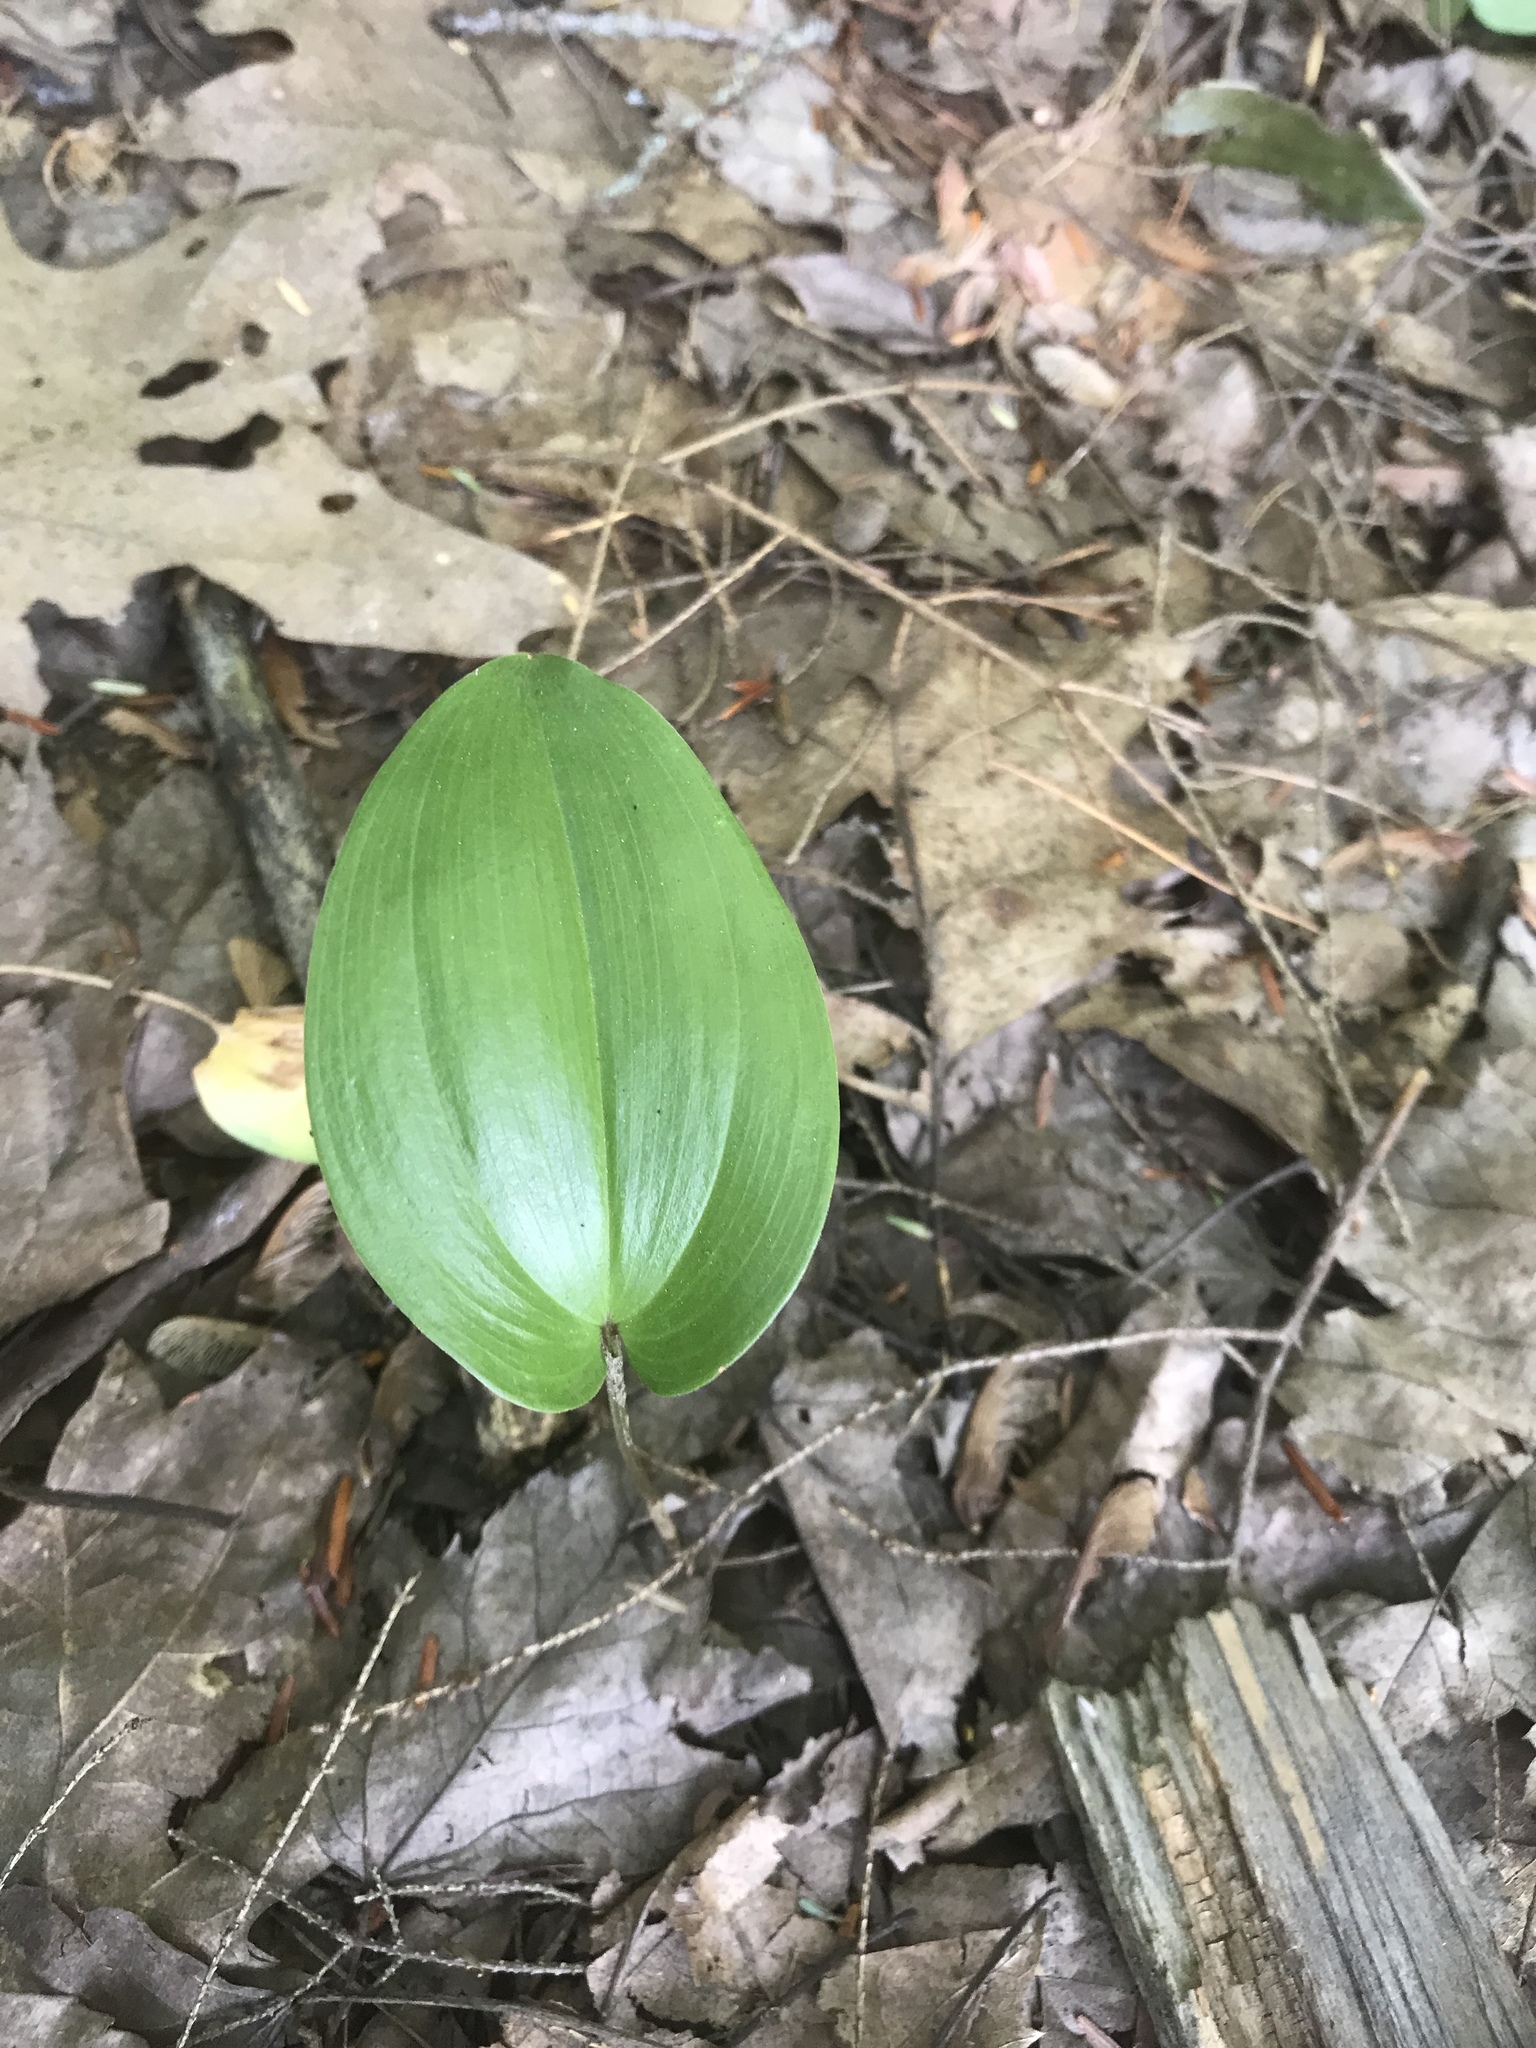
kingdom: Plantae
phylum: Tracheophyta
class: Liliopsida
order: Asparagales
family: Asparagaceae
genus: Maianthemum
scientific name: Maianthemum canadense
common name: False lily-of-the-valley
